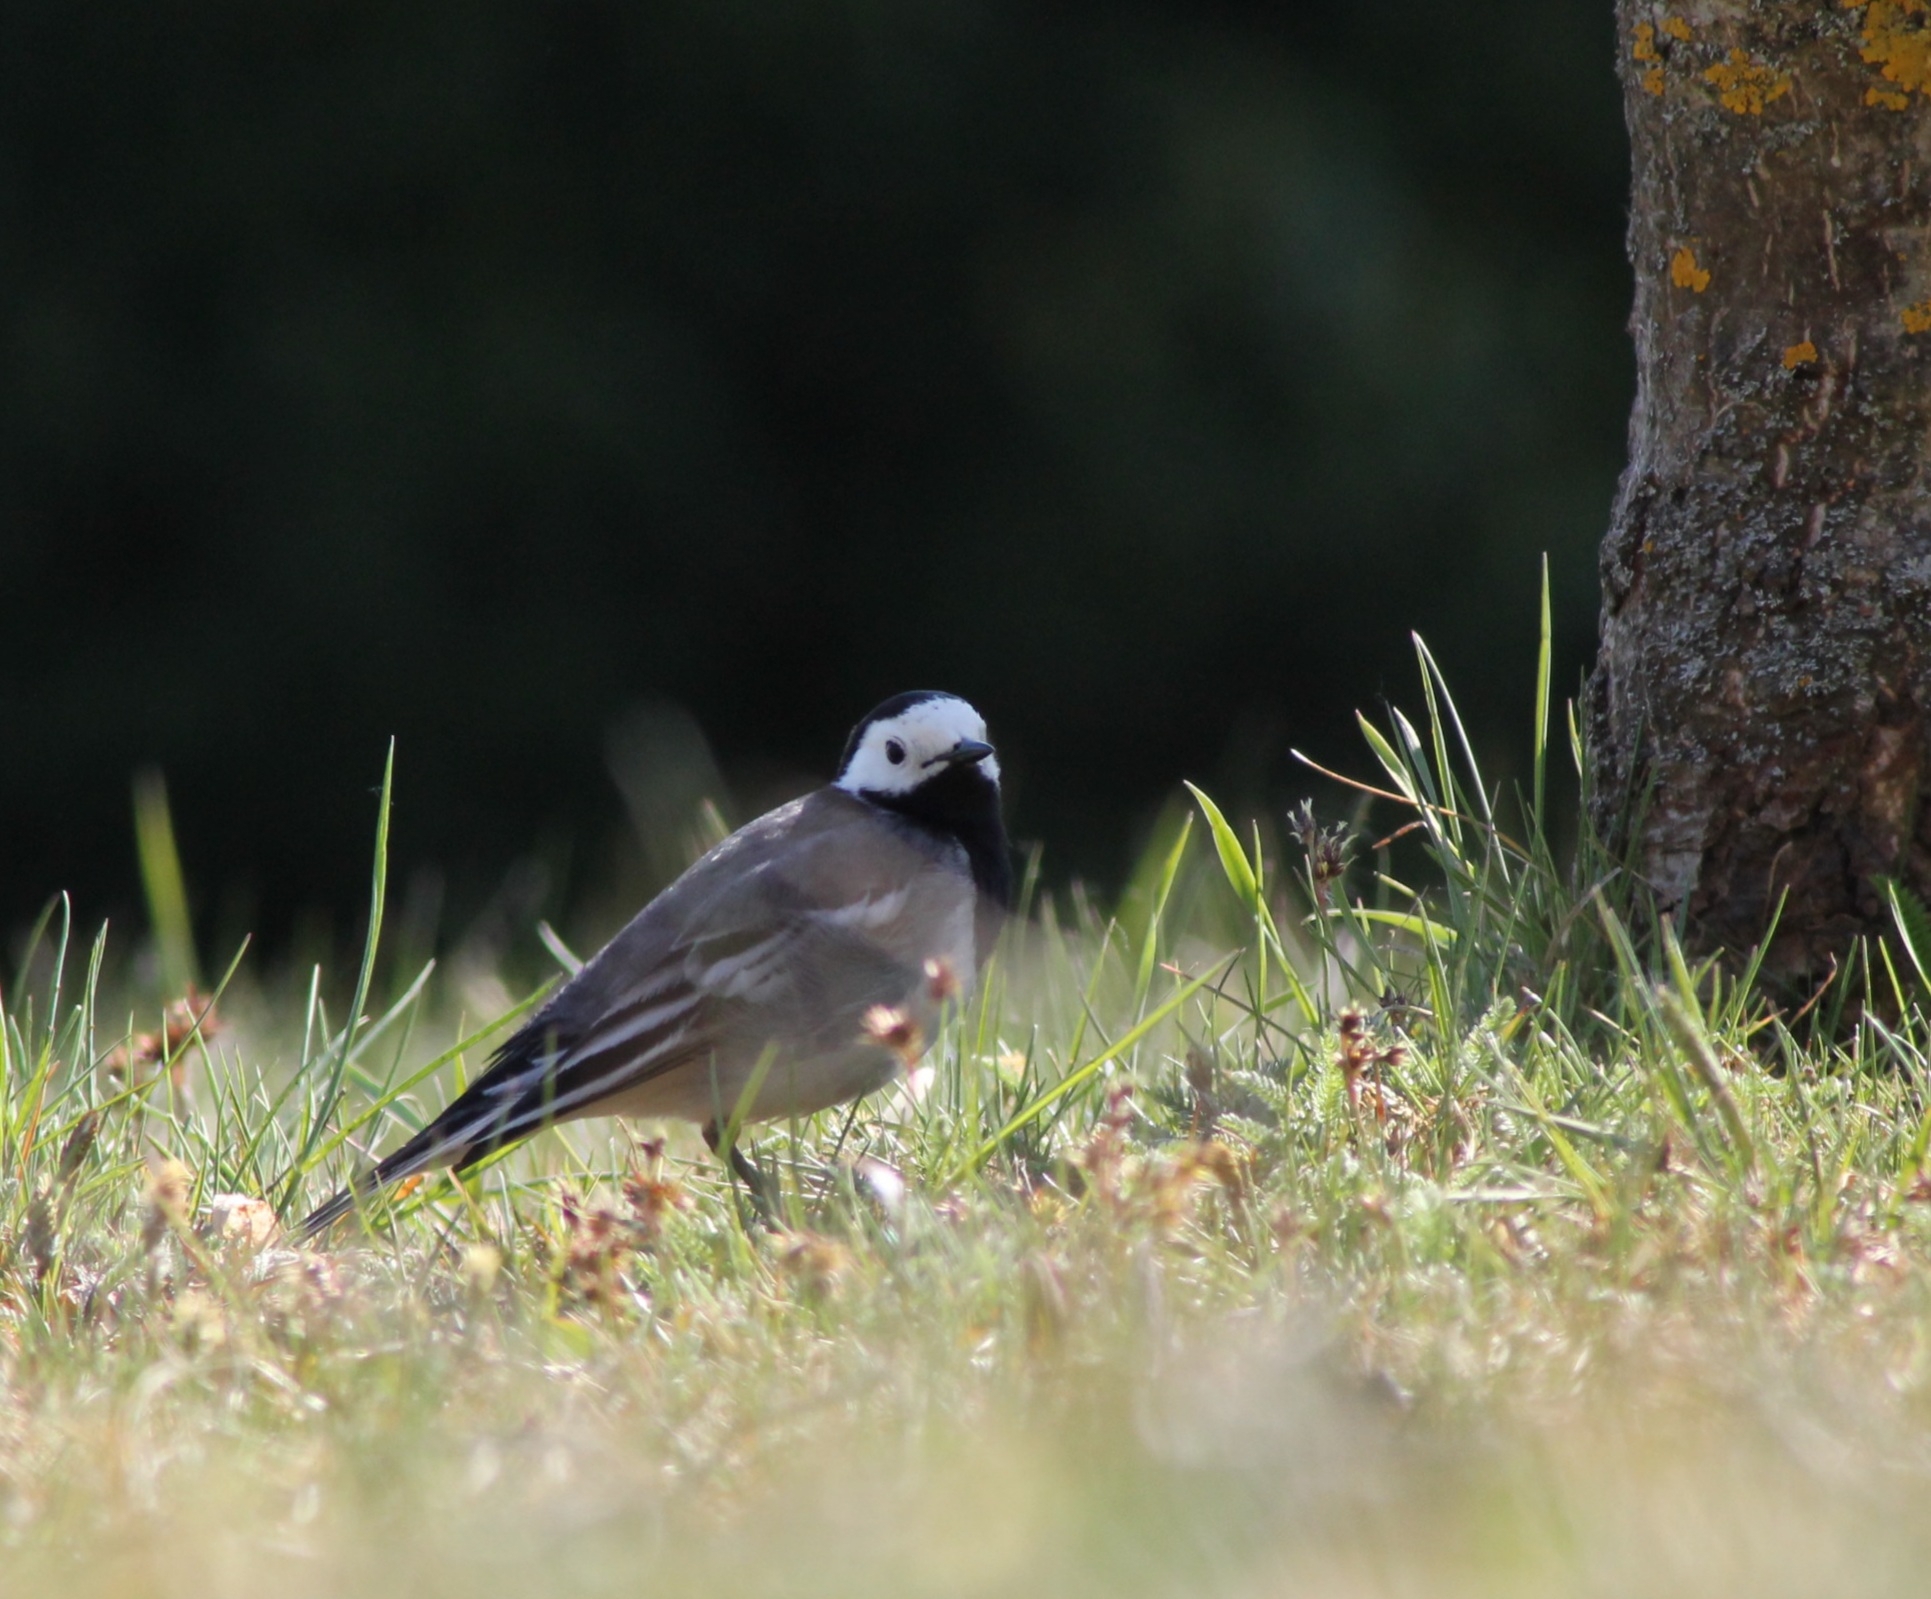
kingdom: Animalia
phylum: Chordata
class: Aves
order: Passeriformes
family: Motacillidae
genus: Motacilla
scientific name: Motacilla alba
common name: White wagtail
